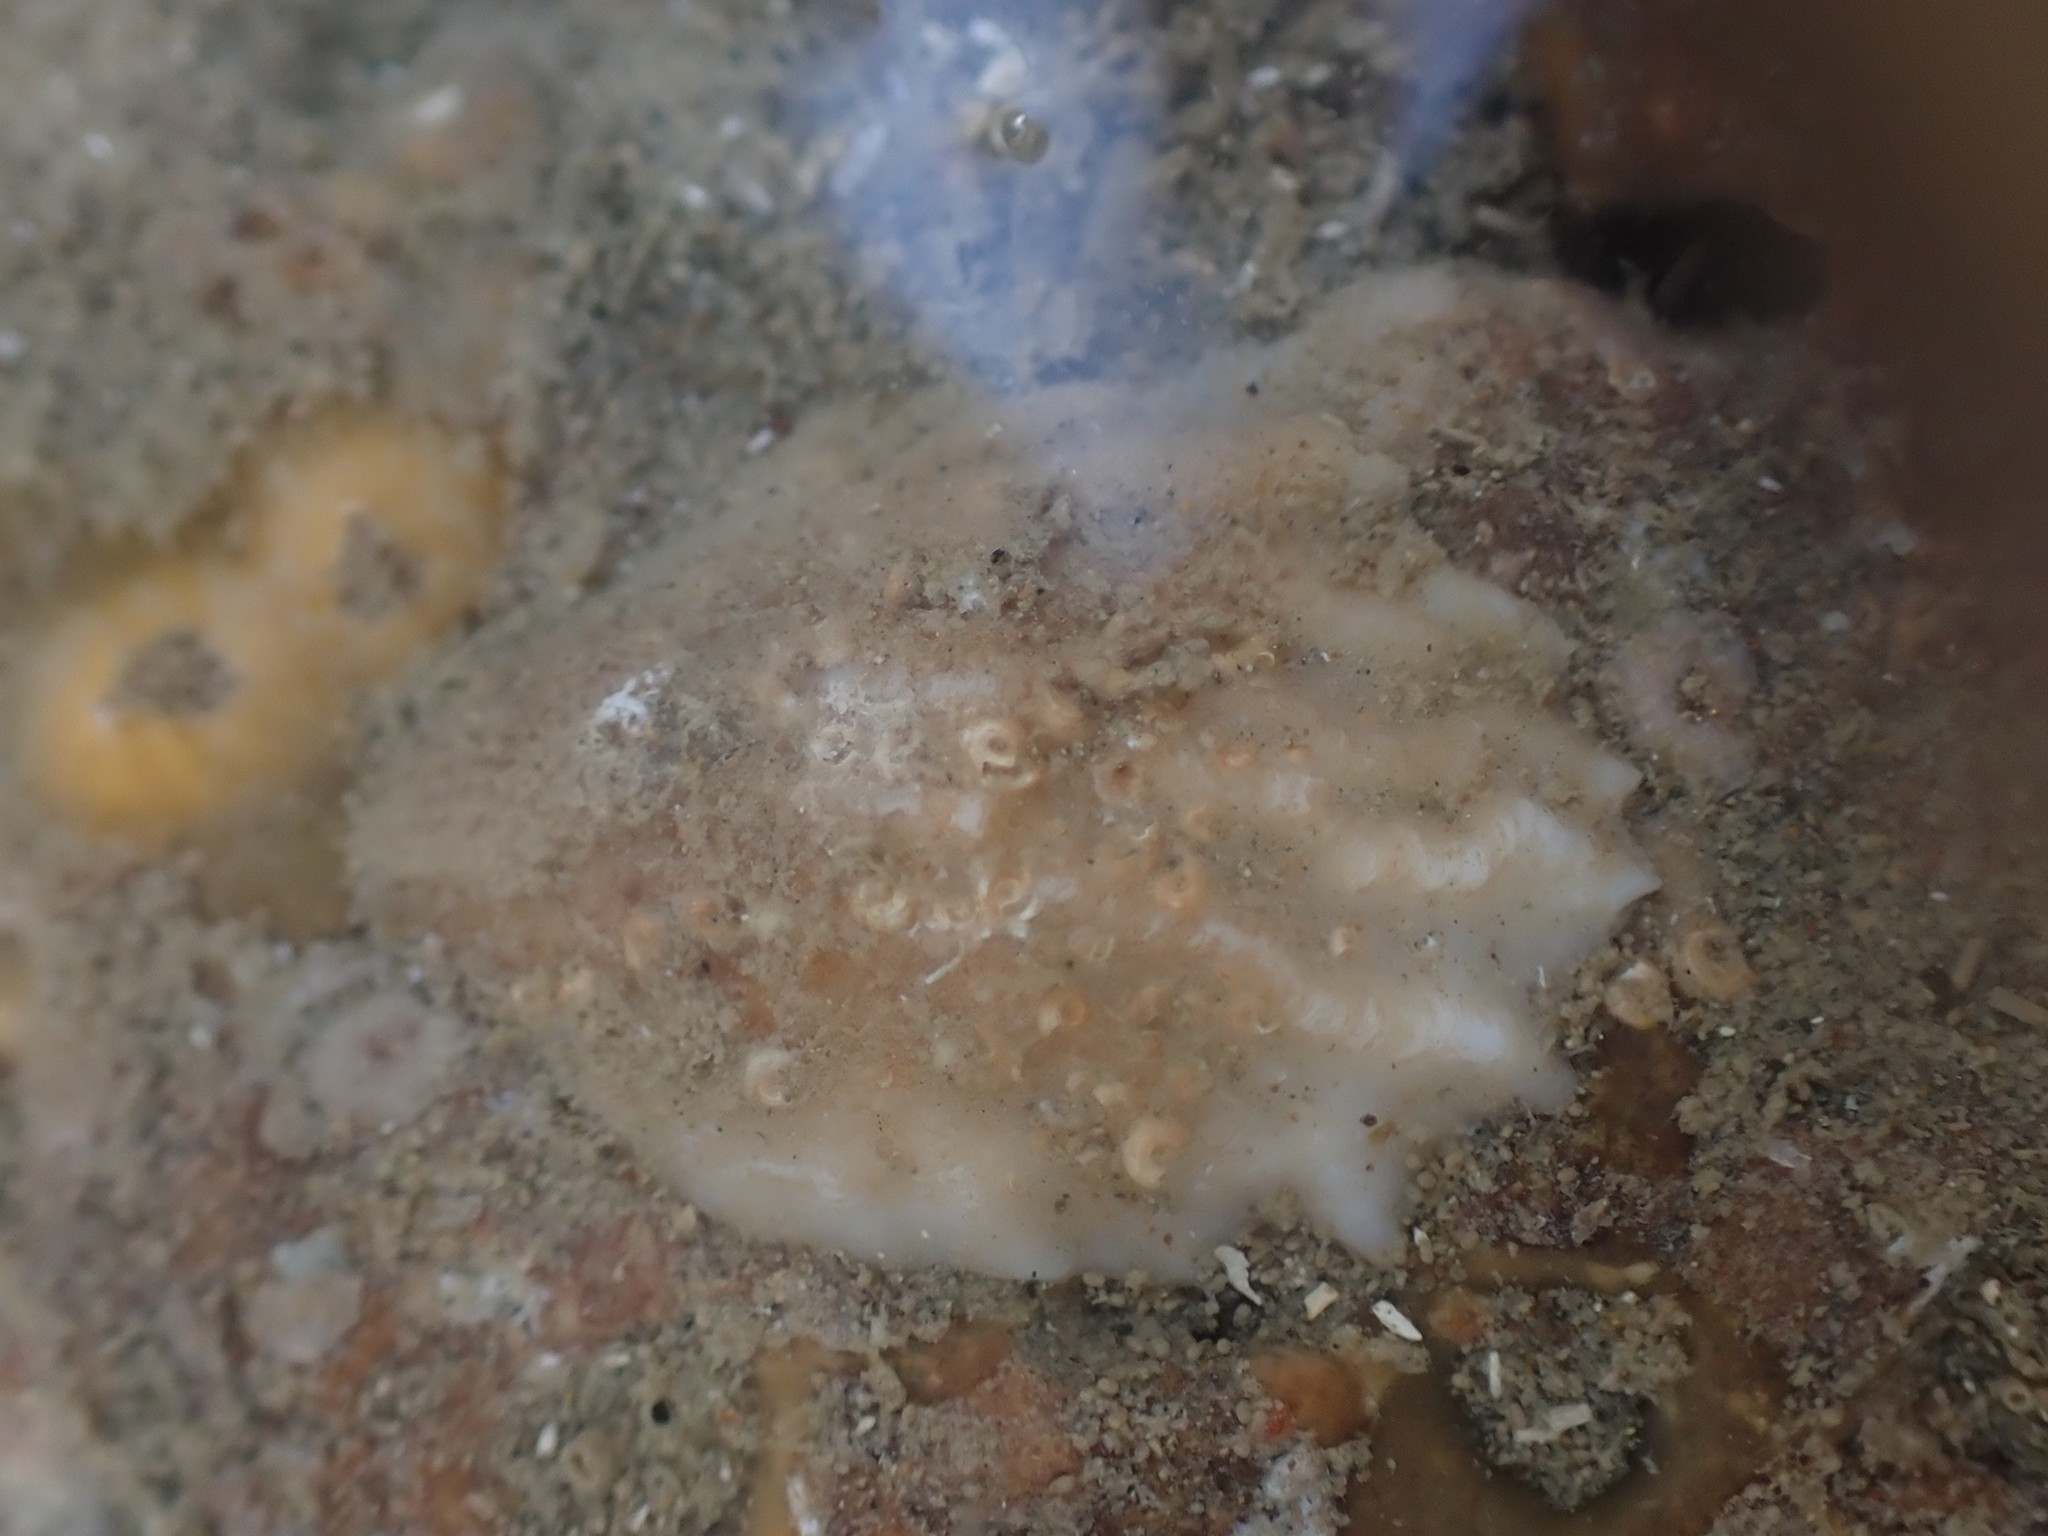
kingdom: Animalia
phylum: Mollusca
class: Gastropoda
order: Littorinimorpha
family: Calyptraeidae
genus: Maoricrypta
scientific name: Maoricrypta costata
